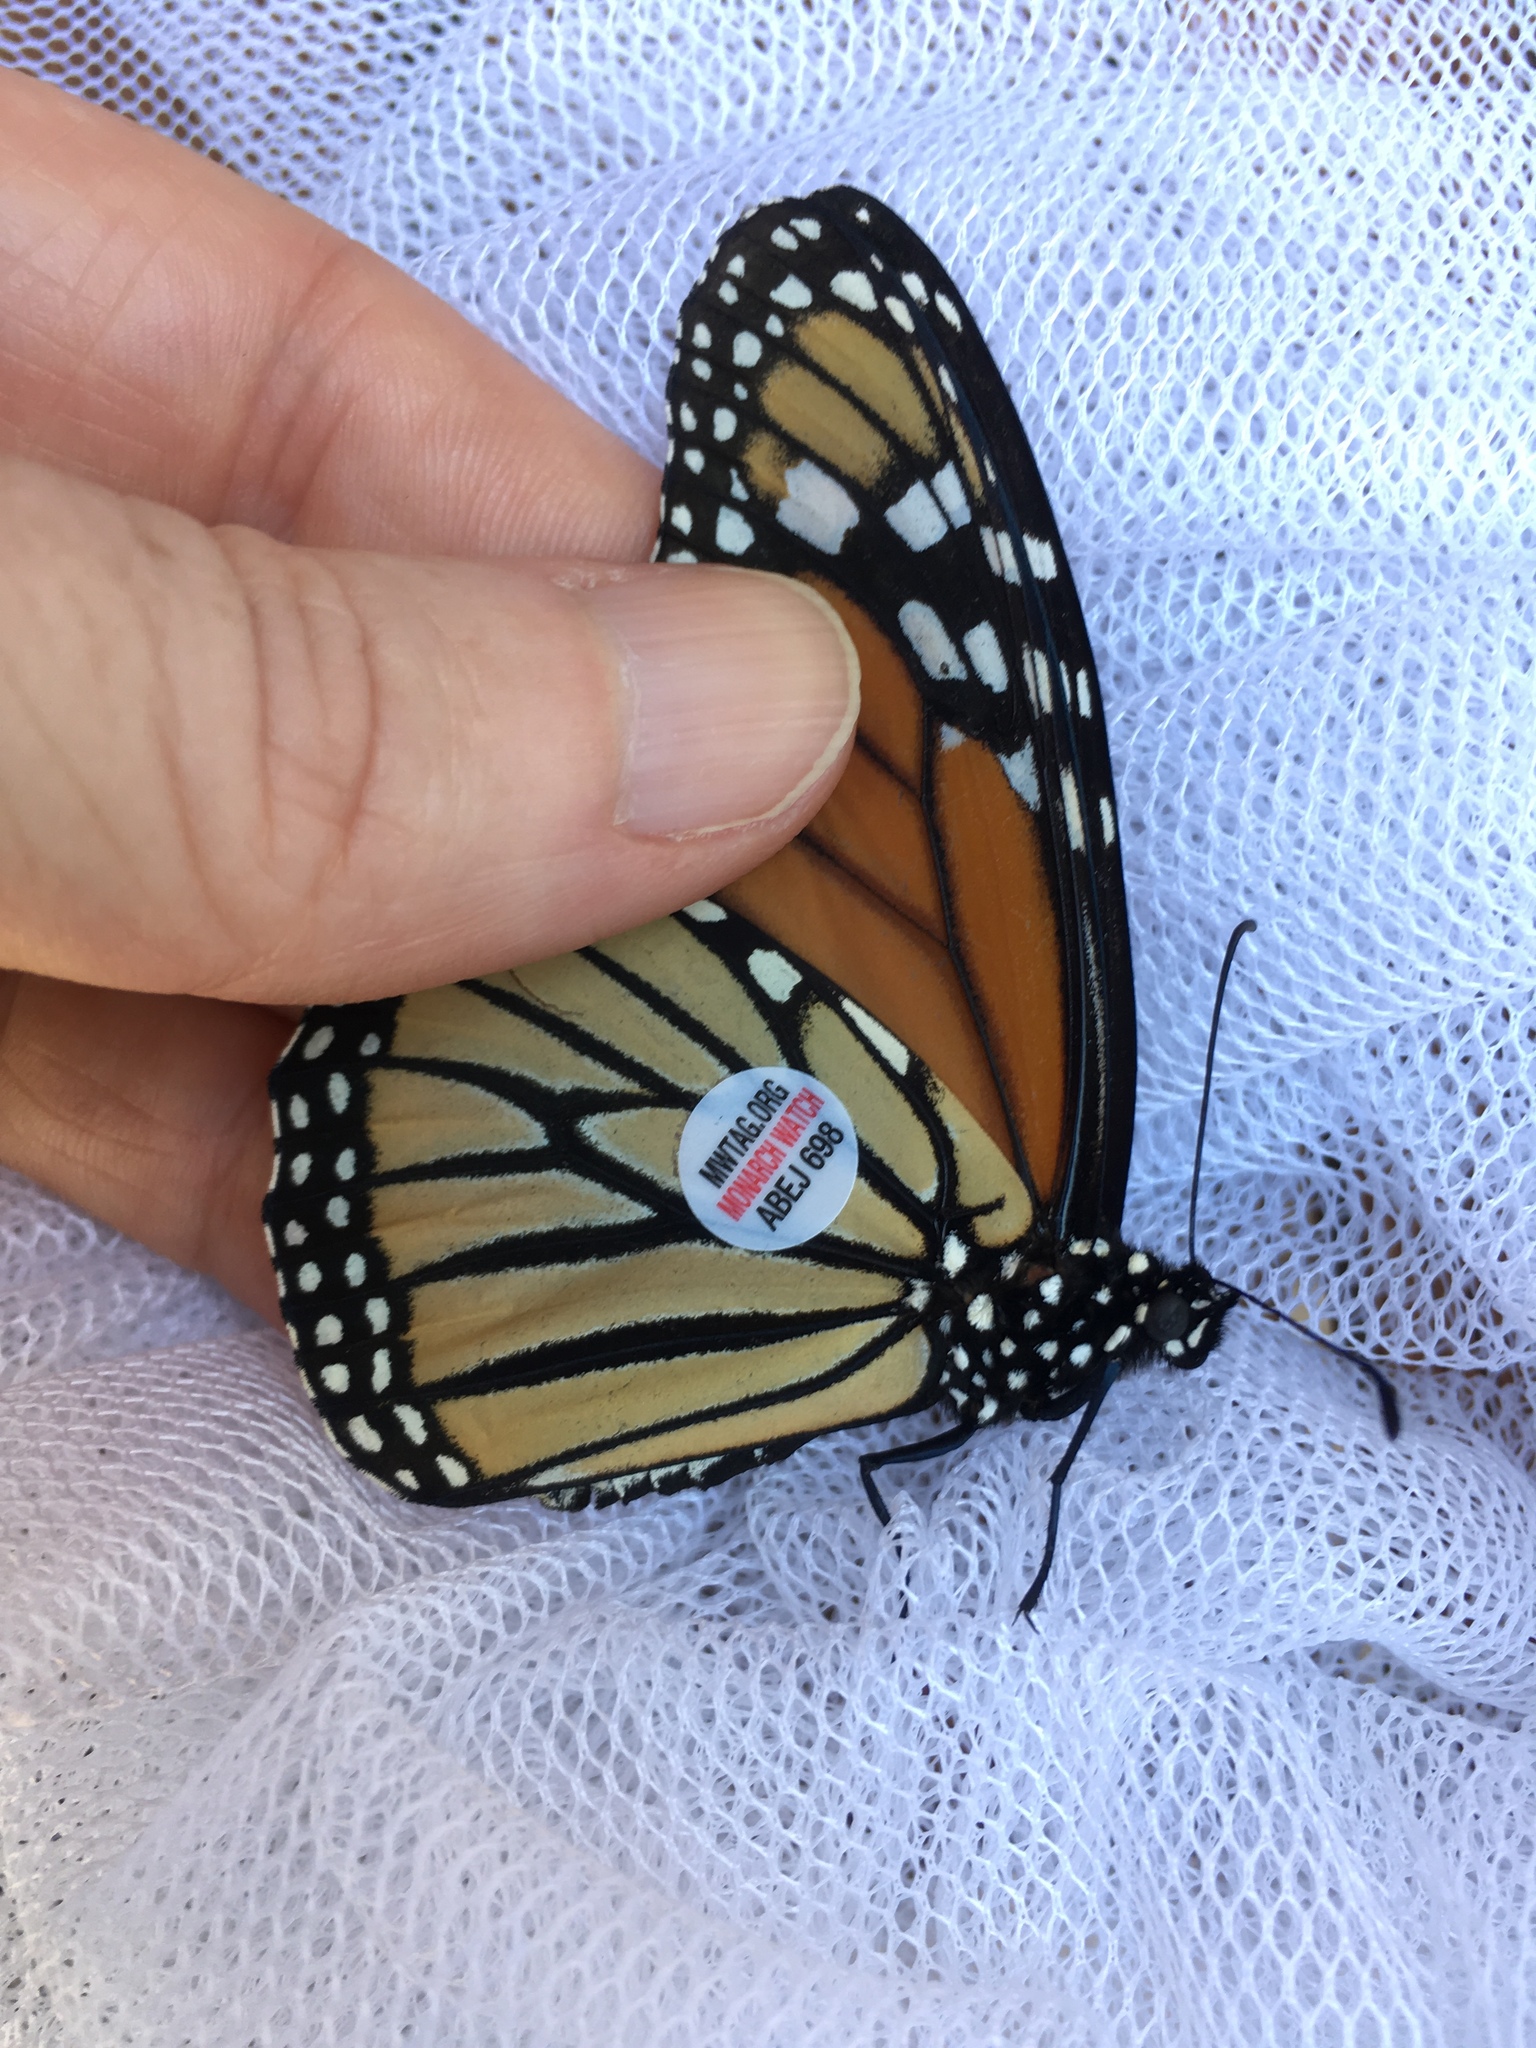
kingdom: Animalia
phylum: Arthropoda
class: Insecta
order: Lepidoptera
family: Nymphalidae
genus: Danaus
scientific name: Danaus plexippus
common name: Monarch
